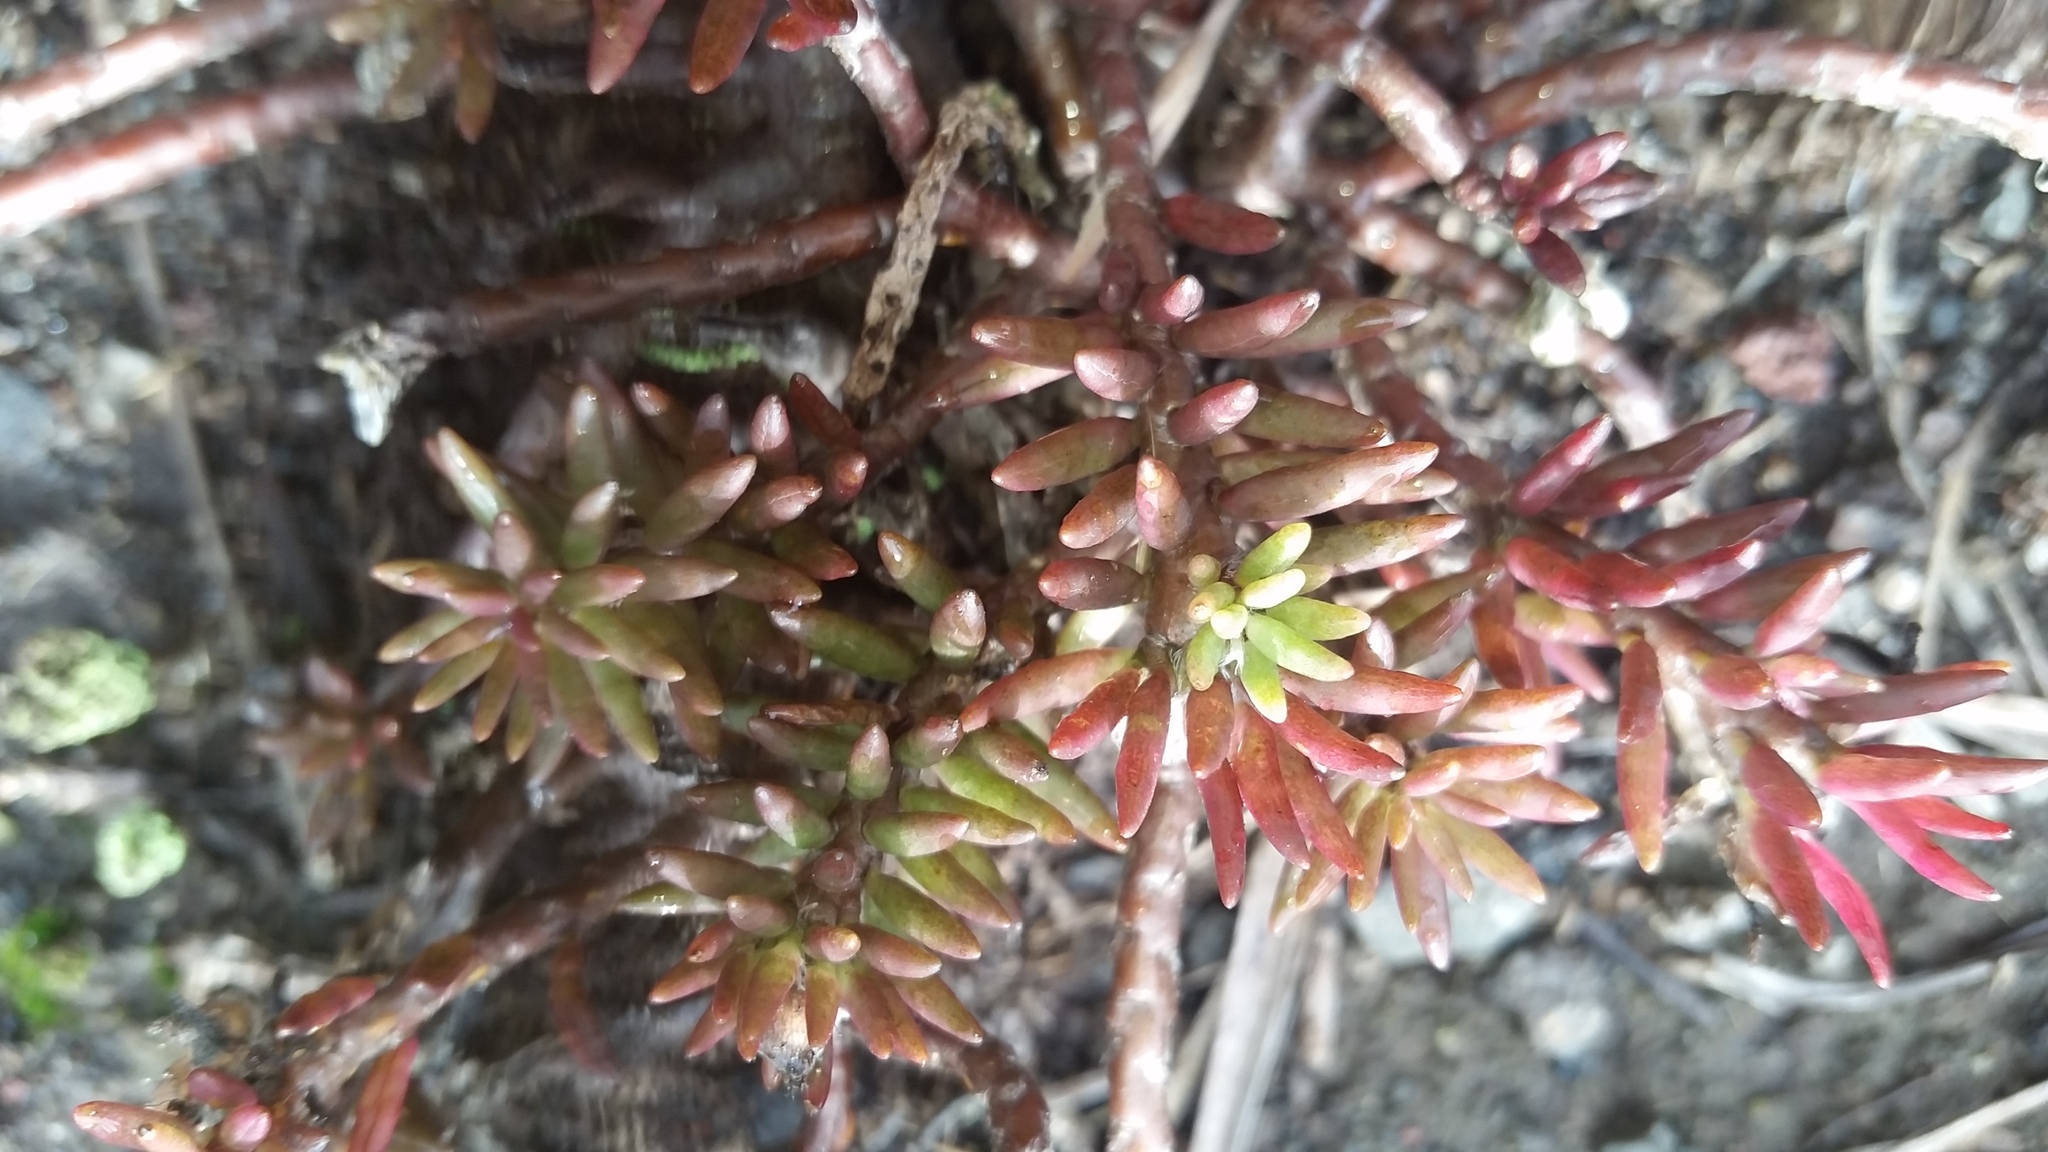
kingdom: Plantae
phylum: Tracheophyta
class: Magnoliopsida
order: Caryophyllales
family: Portulacaceae
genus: Portulaca
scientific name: Portulaca sclerocarpa
